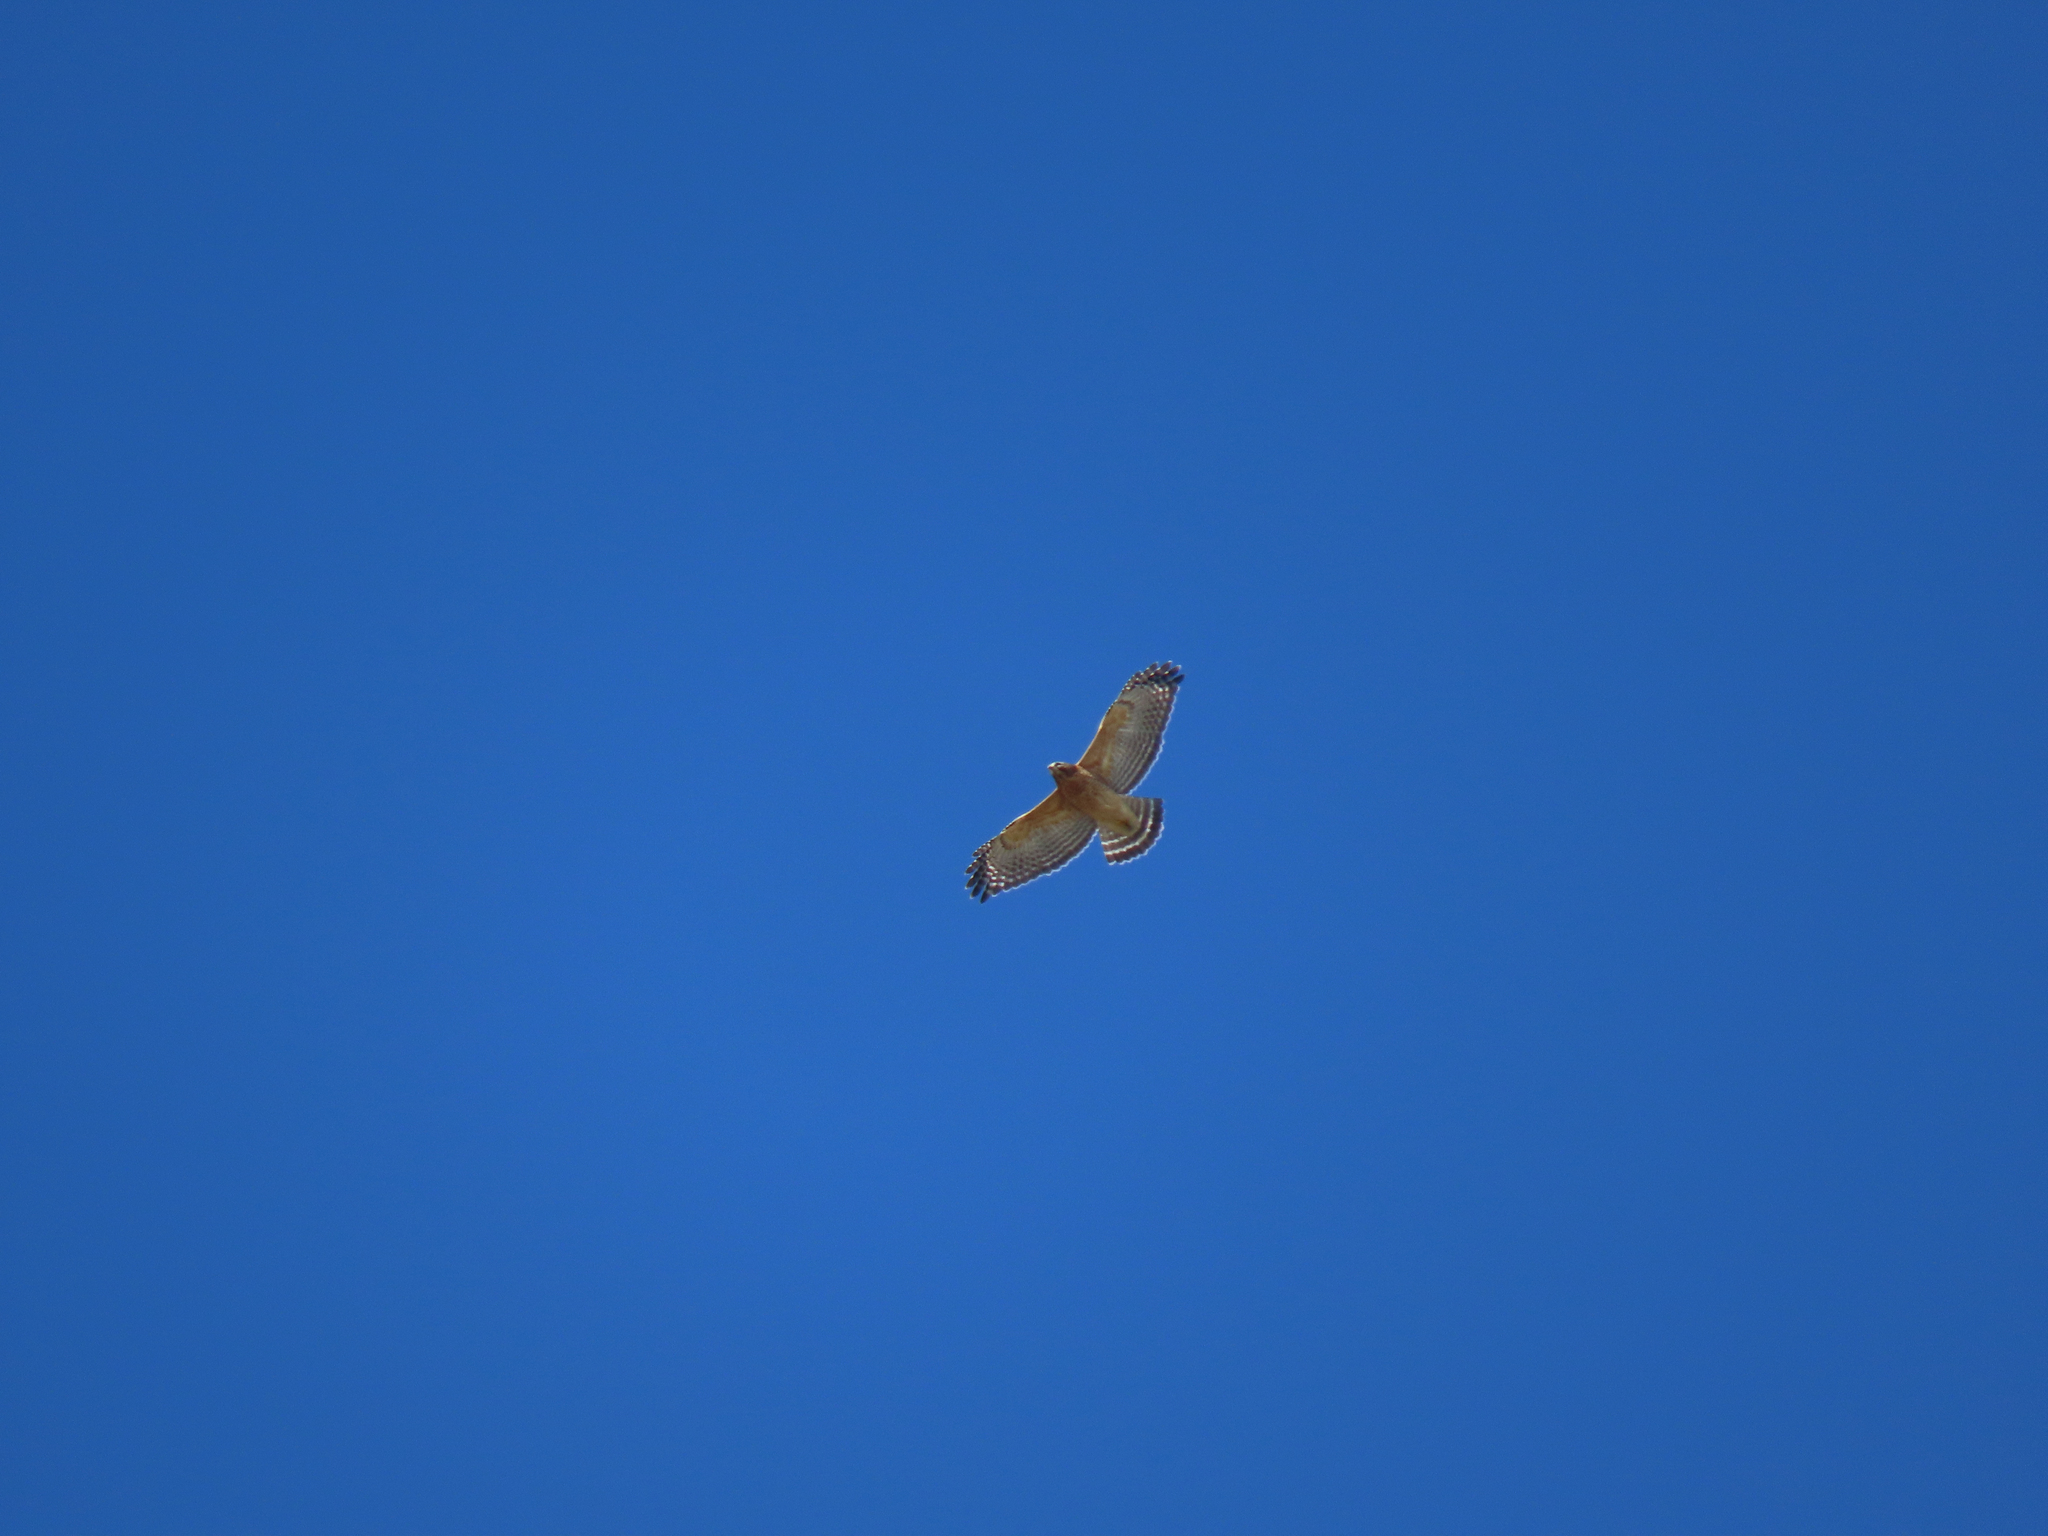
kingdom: Animalia
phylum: Chordata
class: Aves
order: Accipitriformes
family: Accipitridae
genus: Buteo
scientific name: Buteo lineatus
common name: Red-shouldered hawk
